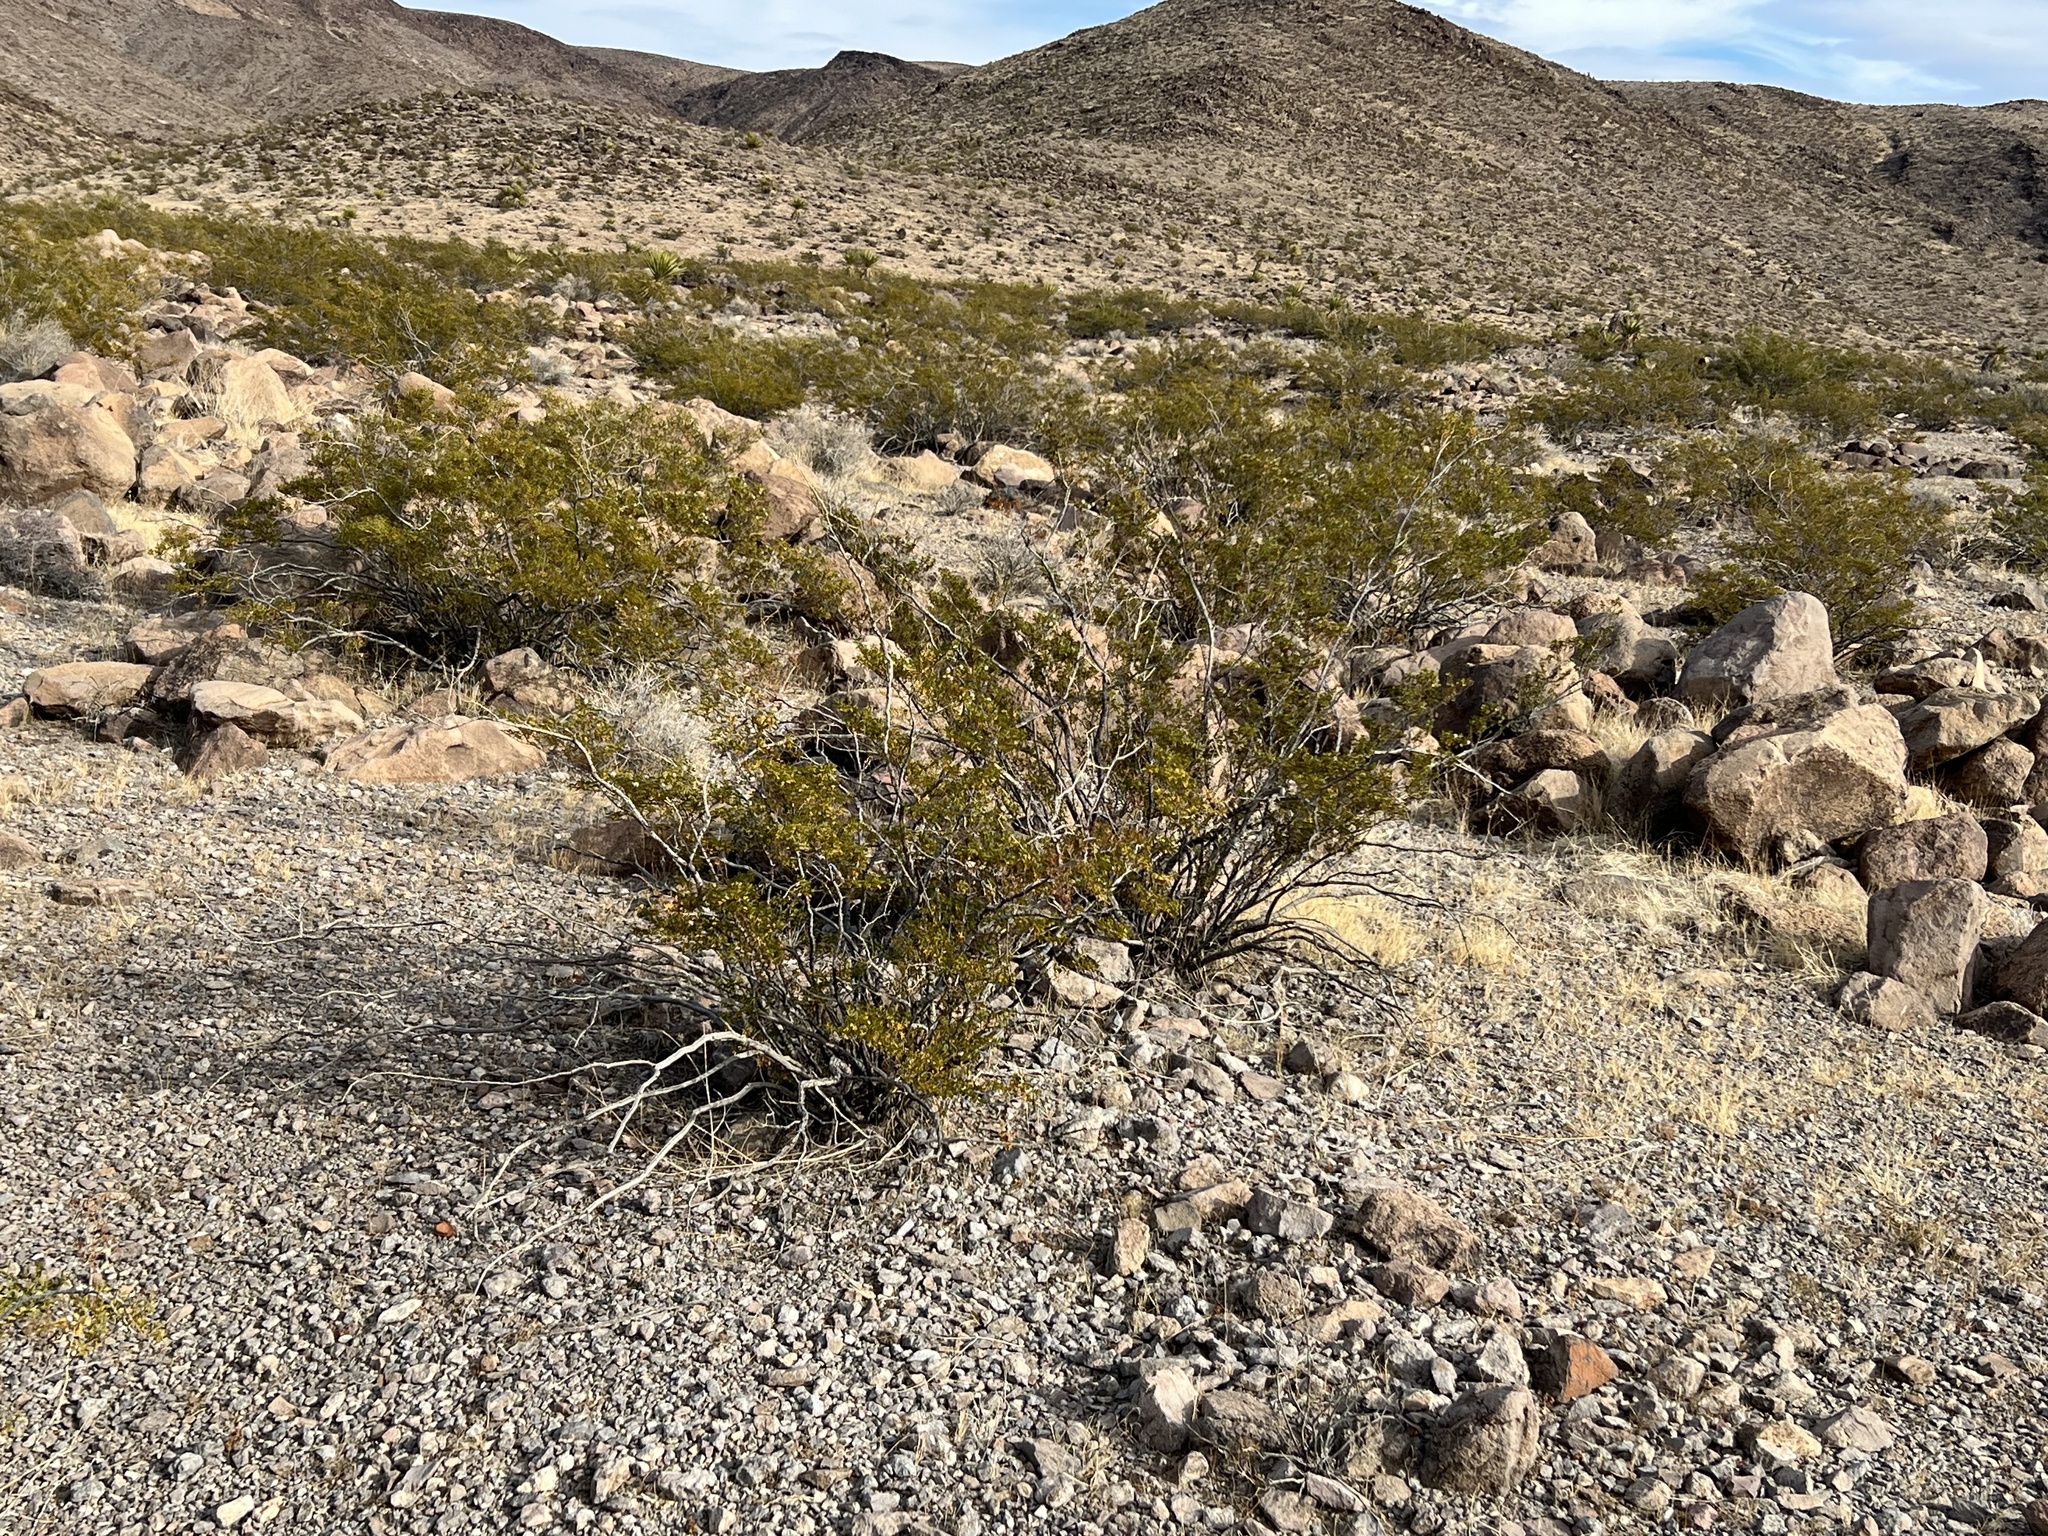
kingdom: Plantae
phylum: Tracheophyta
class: Magnoliopsida
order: Zygophyllales
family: Zygophyllaceae
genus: Larrea
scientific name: Larrea tridentata
